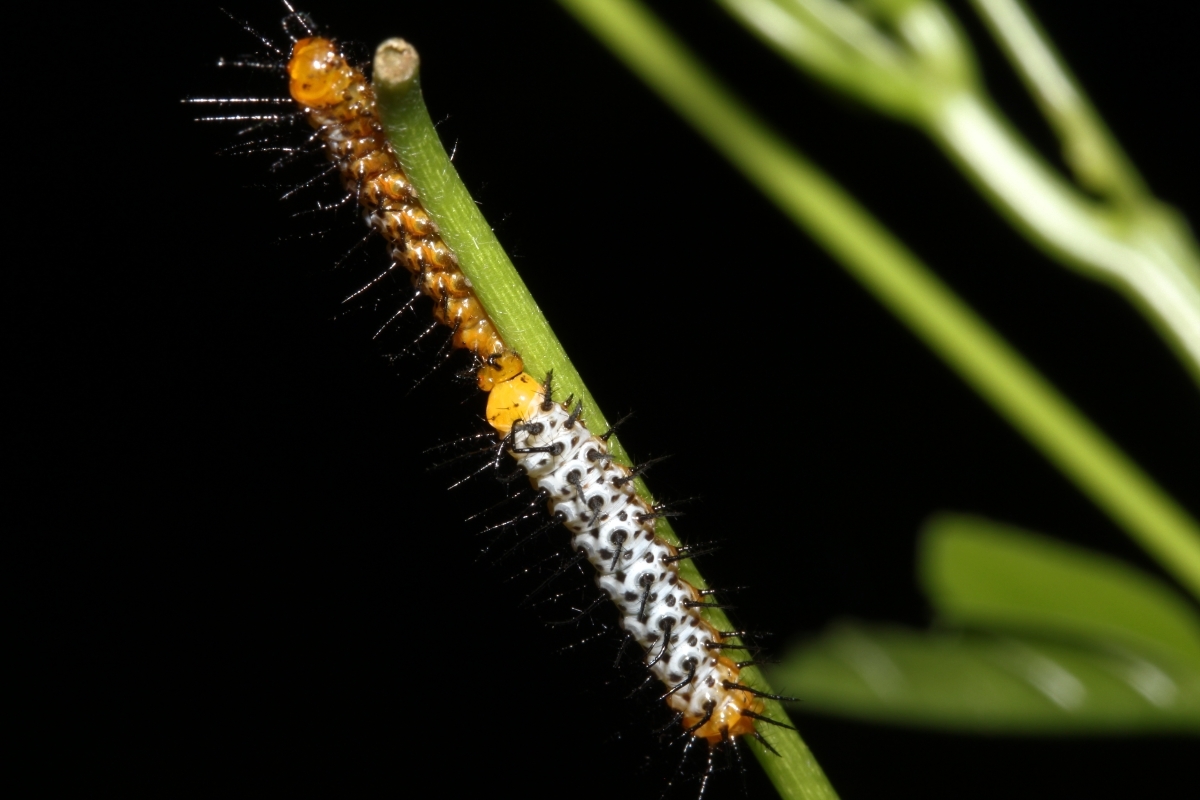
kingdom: Animalia
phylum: Arthropoda
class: Insecta
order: Lepidoptera
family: Nymphalidae
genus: Heliconius
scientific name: Heliconius
